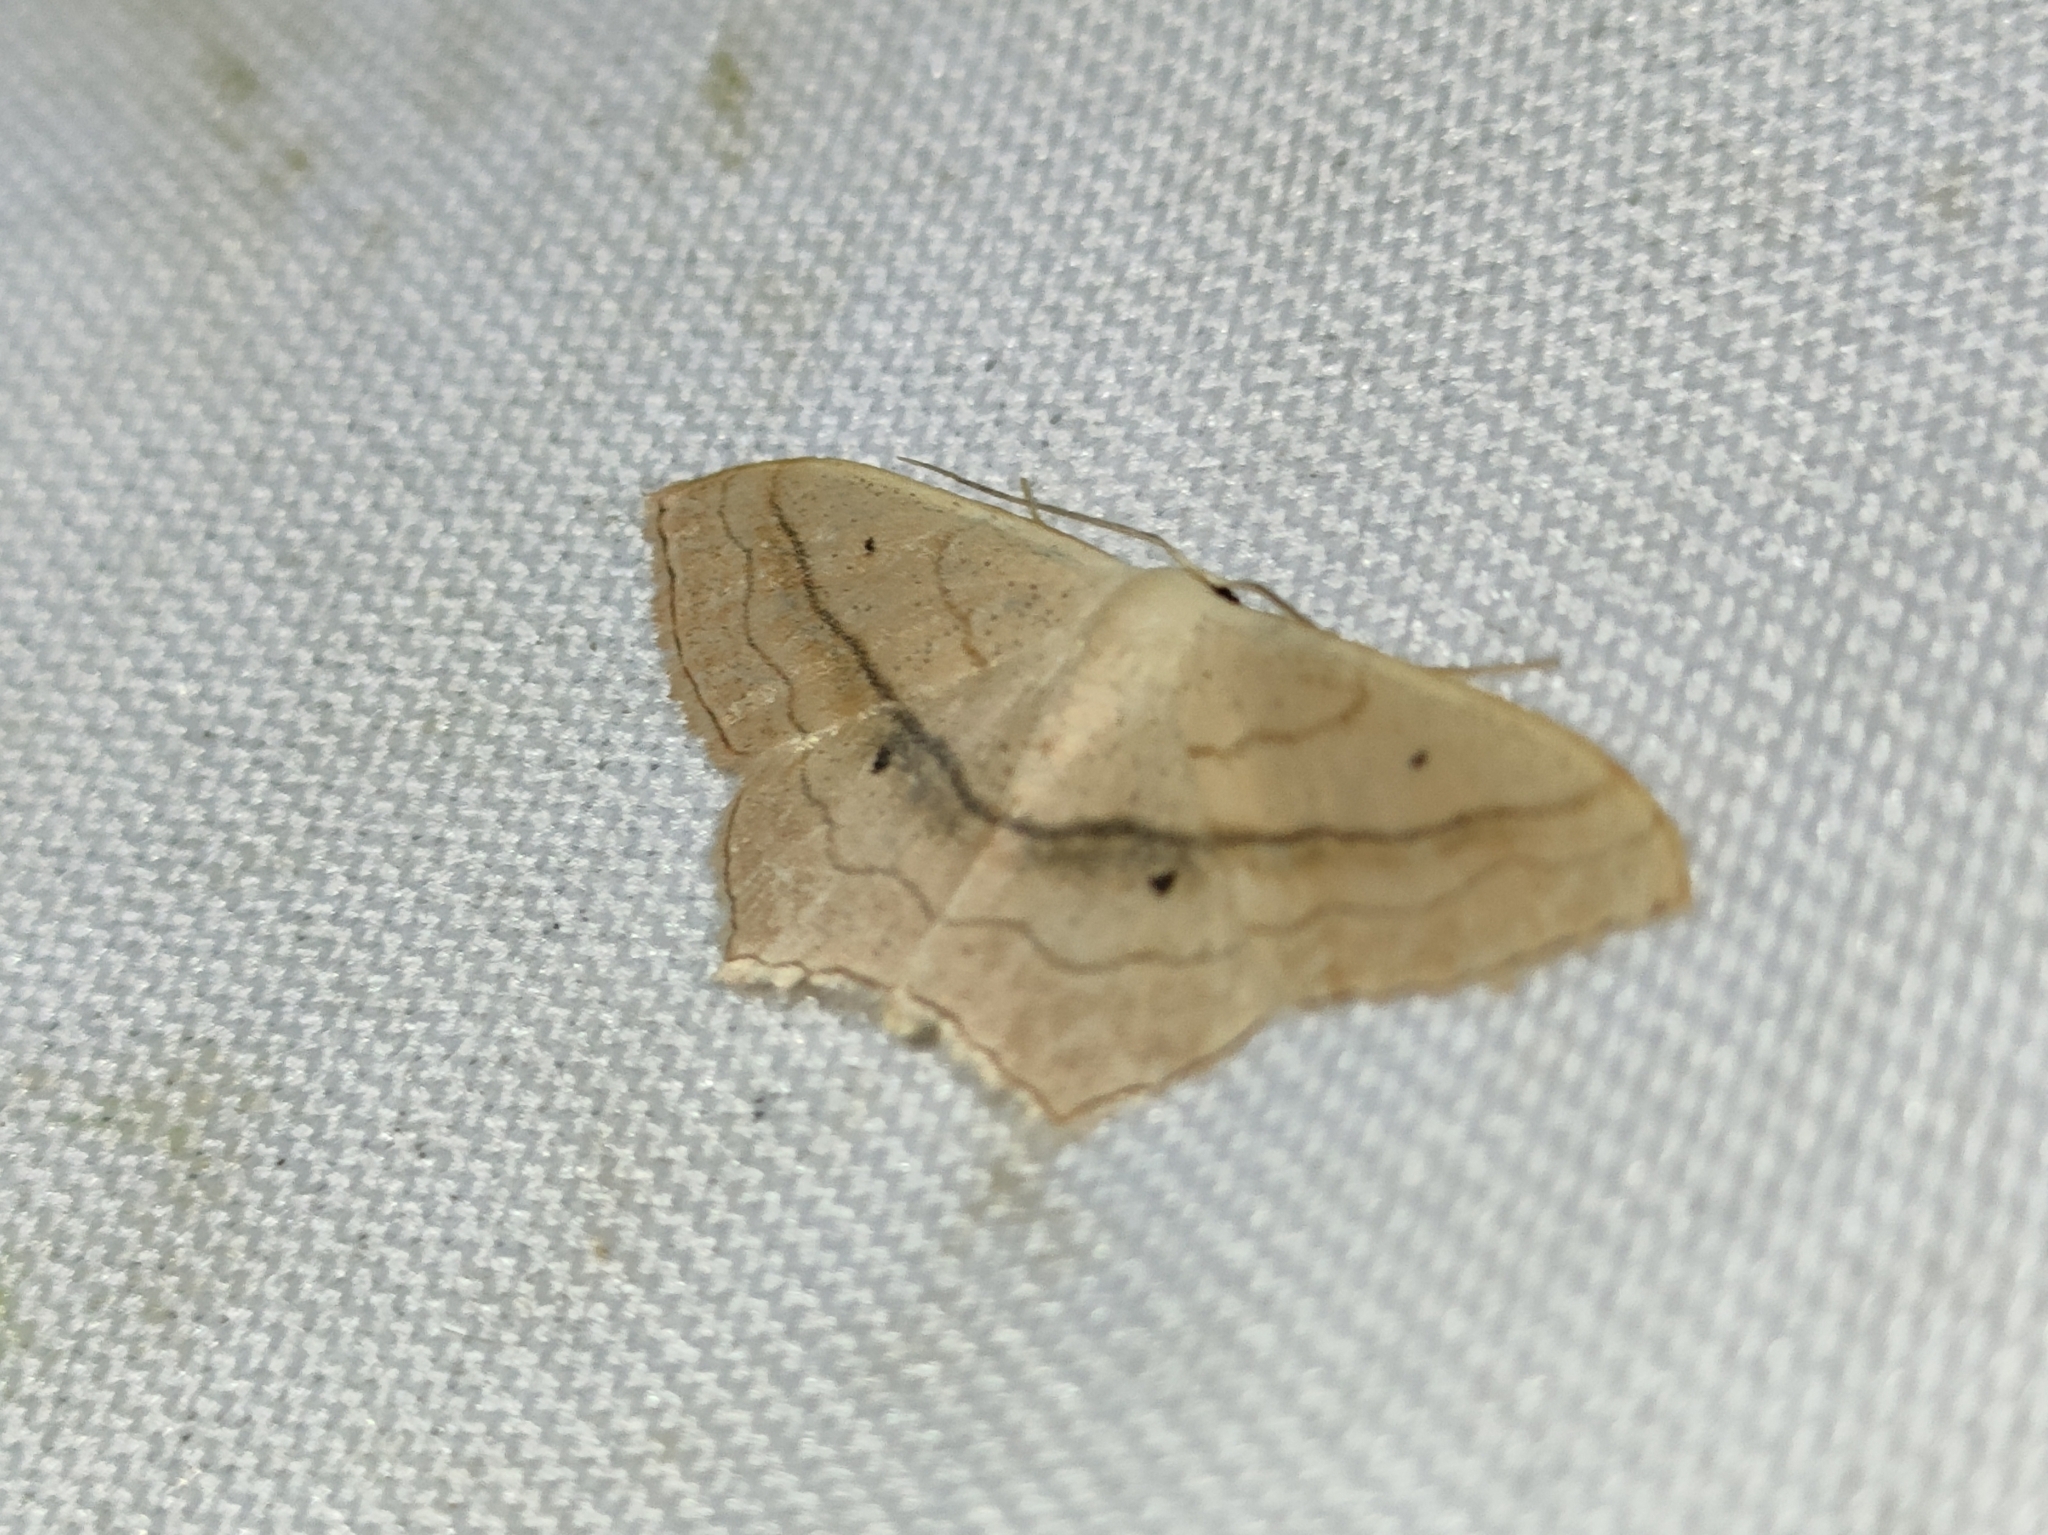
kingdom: Animalia
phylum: Arthropoda
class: Insecta
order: Lepidoptera
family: Geometridae
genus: Scopula
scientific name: Scopula imitaria
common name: Small blood-vein
